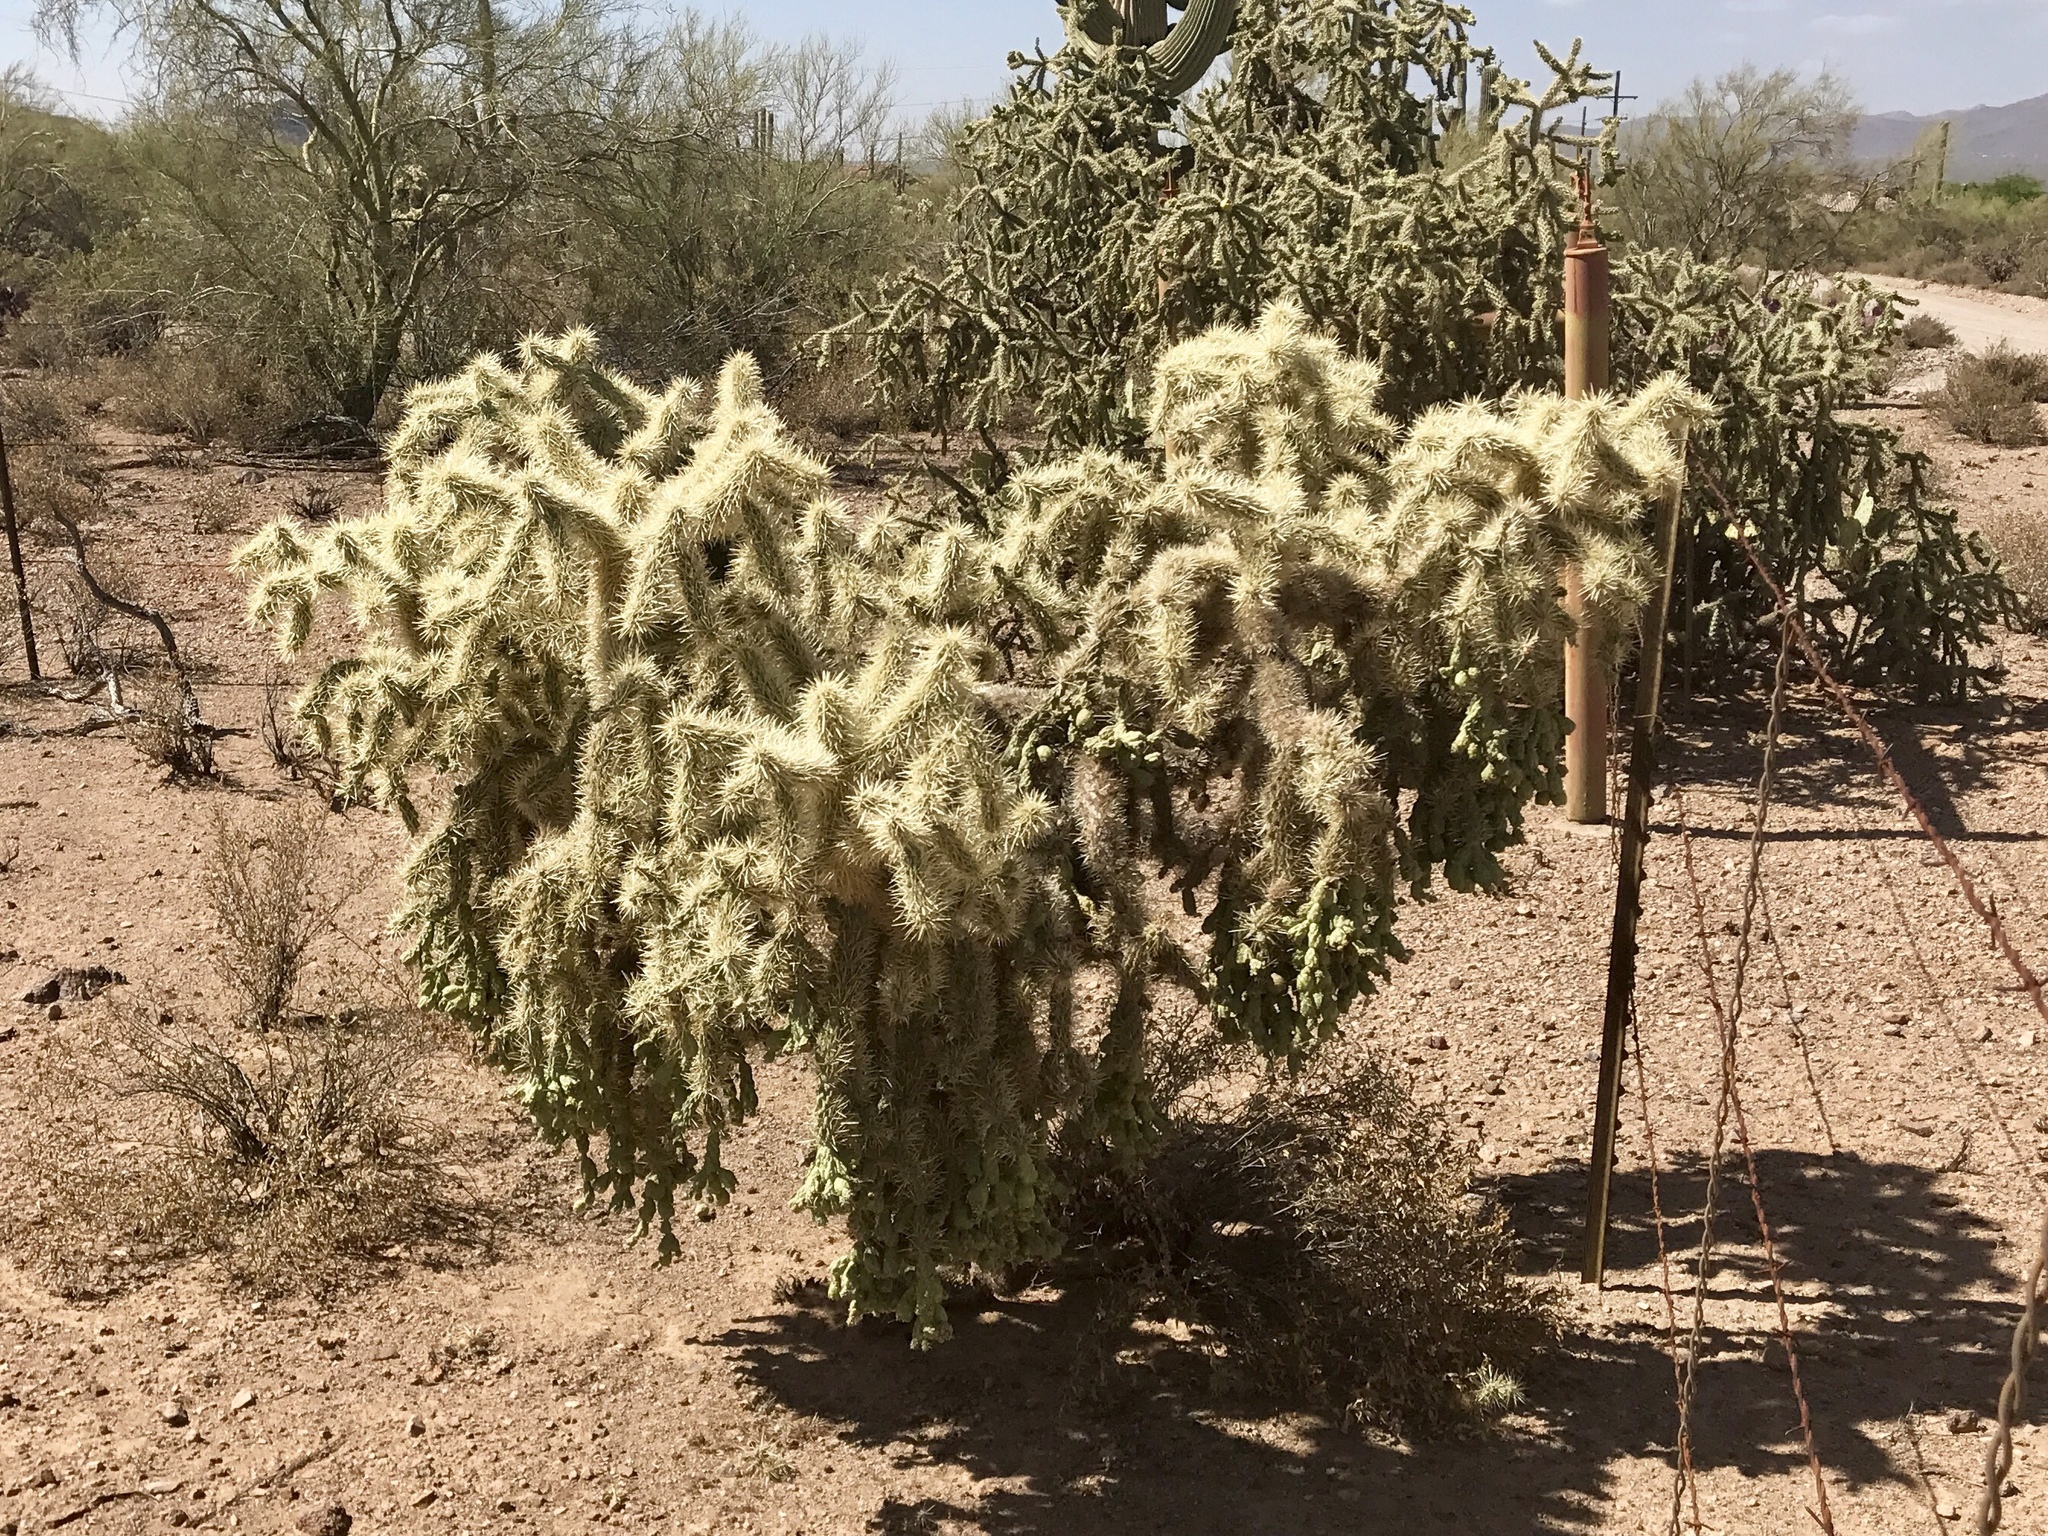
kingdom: Plantae
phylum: Tracheophyta
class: Magnoliopsida
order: Caryophyllales
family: Cactaceae
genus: Cylindropuntia
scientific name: Cylindropuntia fulgida
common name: Jumping cholla
